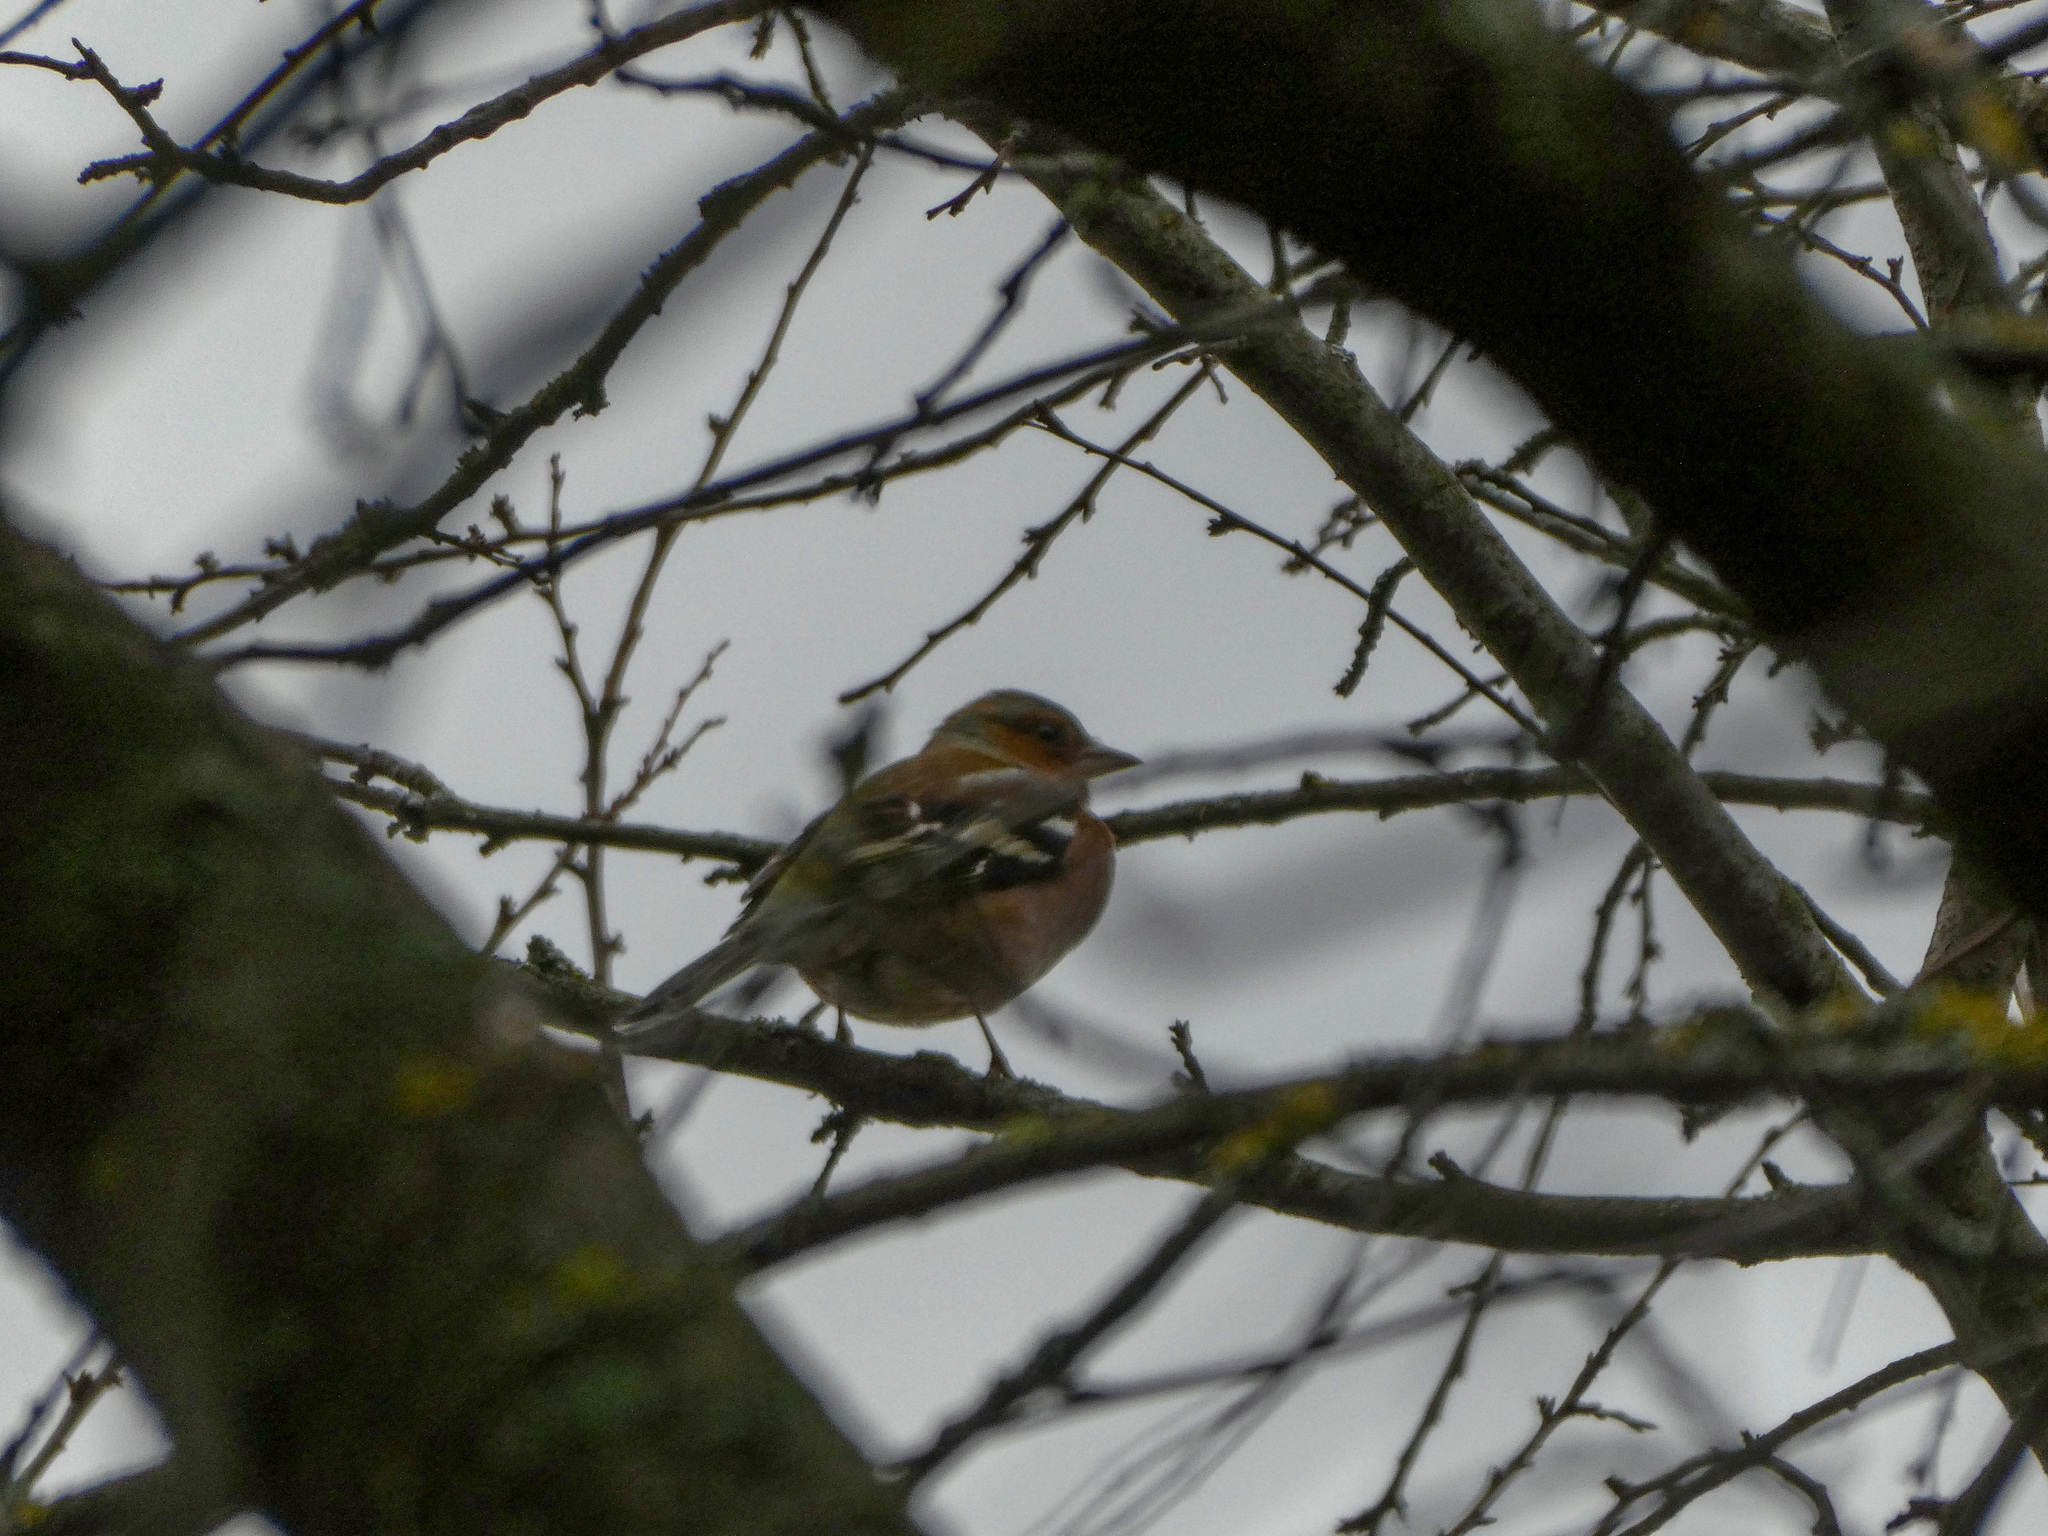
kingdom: Animalia
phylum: Chordata
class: Aves
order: Passeriformes
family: Fringillidae
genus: Fringilla
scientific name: Fringilla coelebs
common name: Common chaffinch
